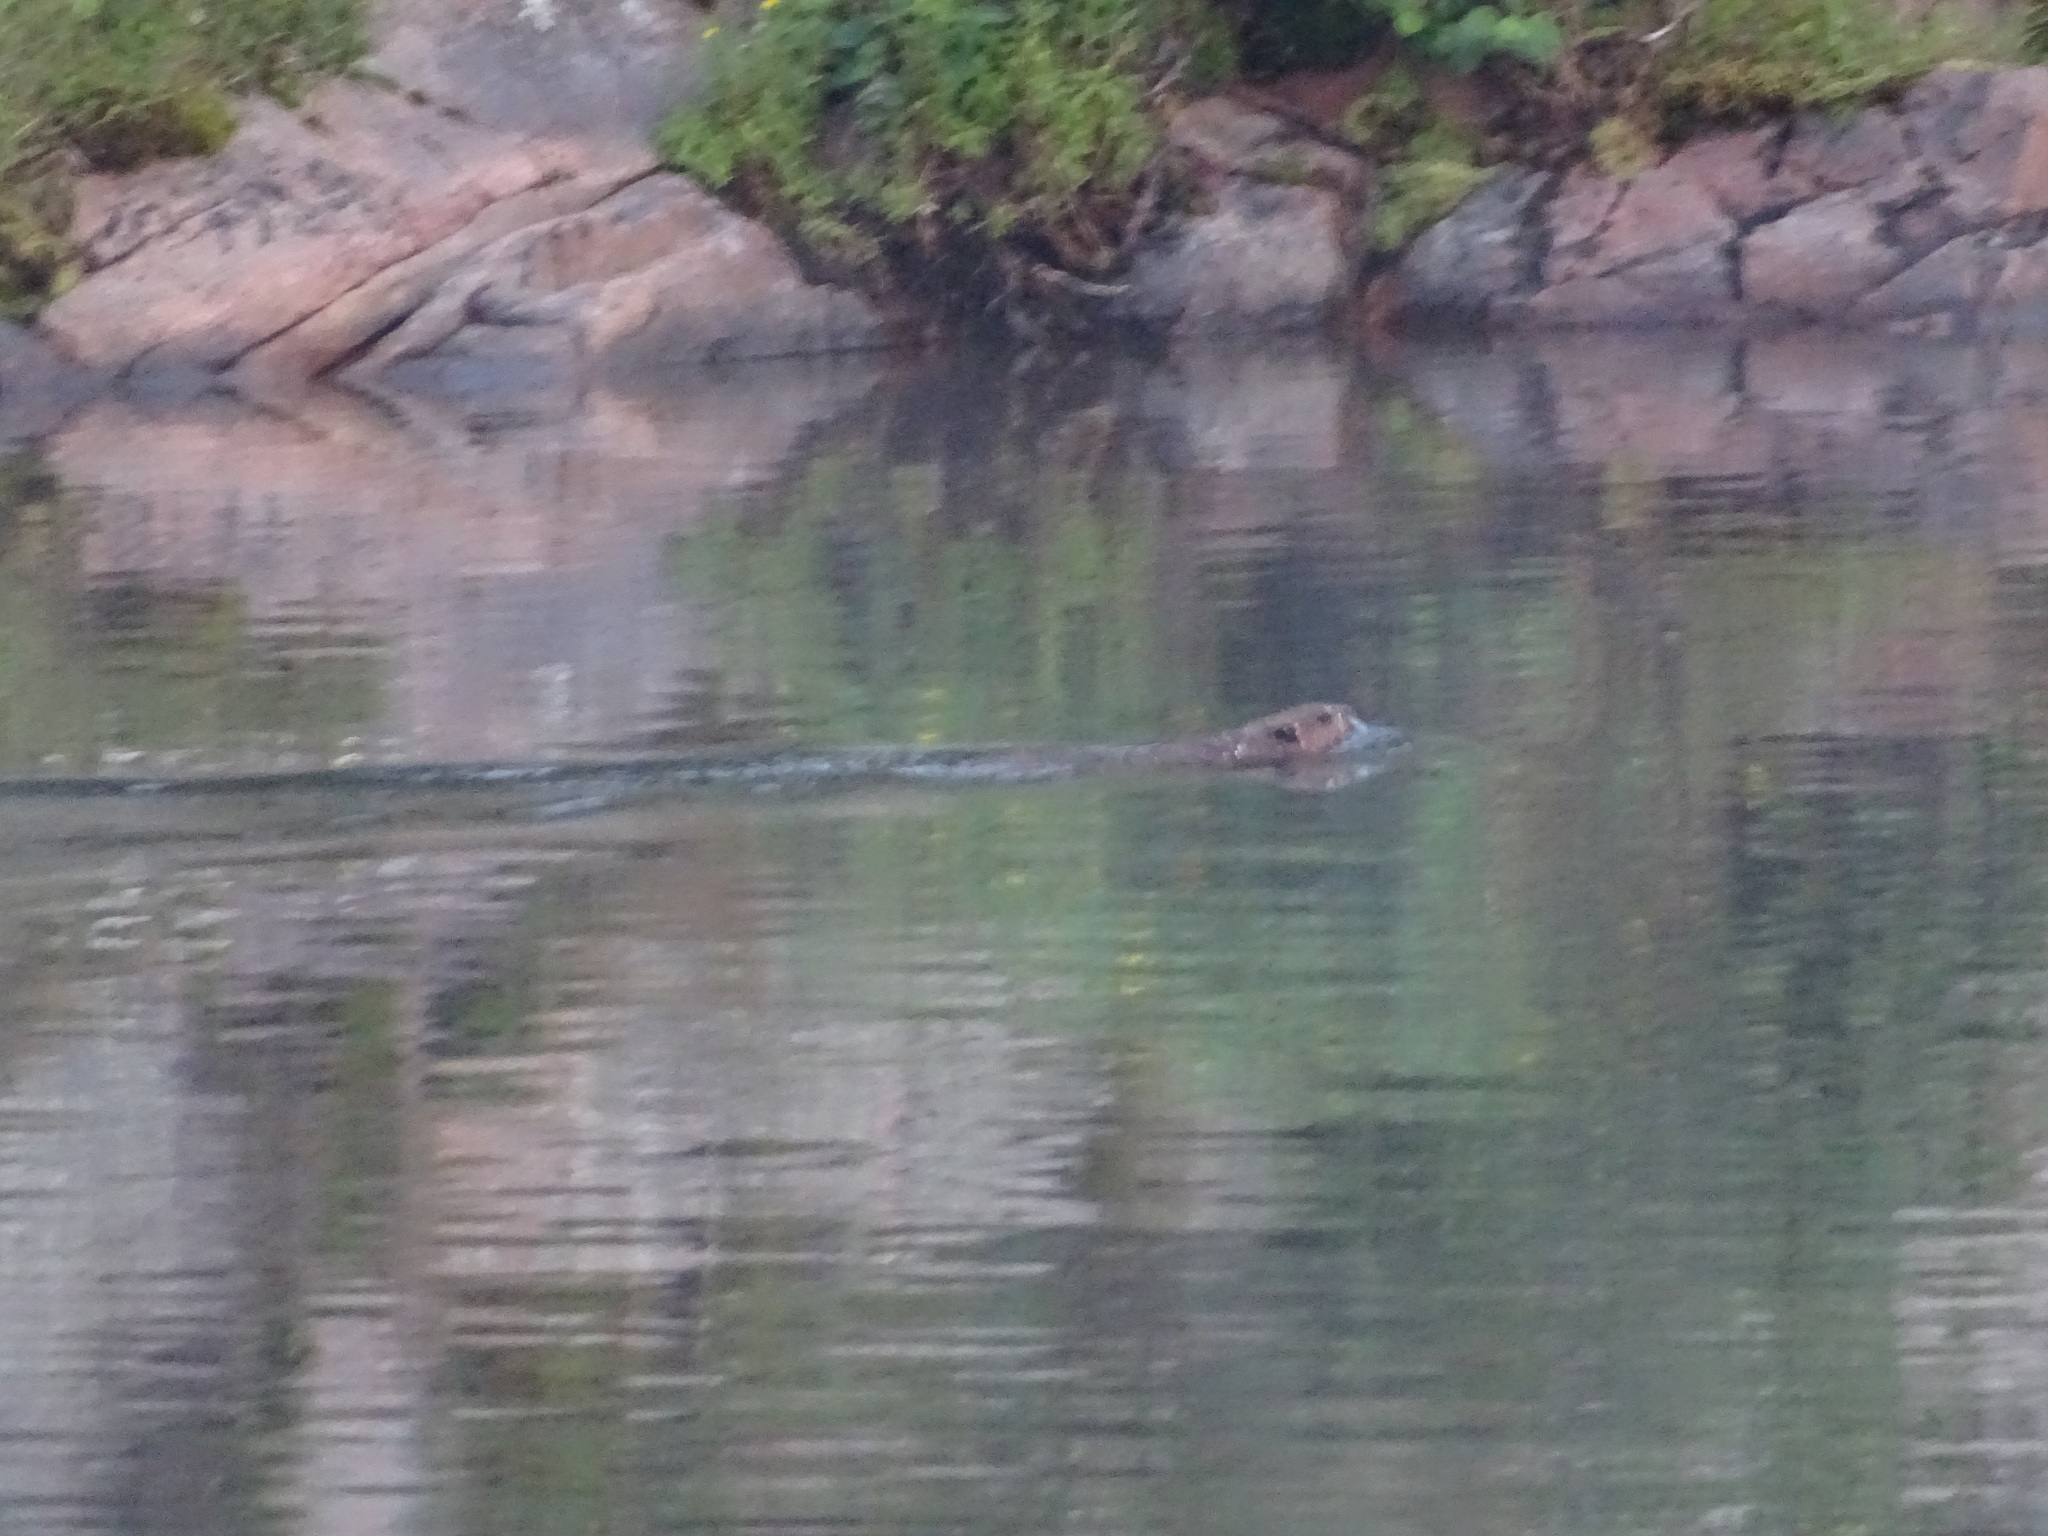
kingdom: Animalia
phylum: Chordata
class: Mammalia
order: Rodentia
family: Castoridae
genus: Castor
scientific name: Castor canadensis
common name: American beaver
